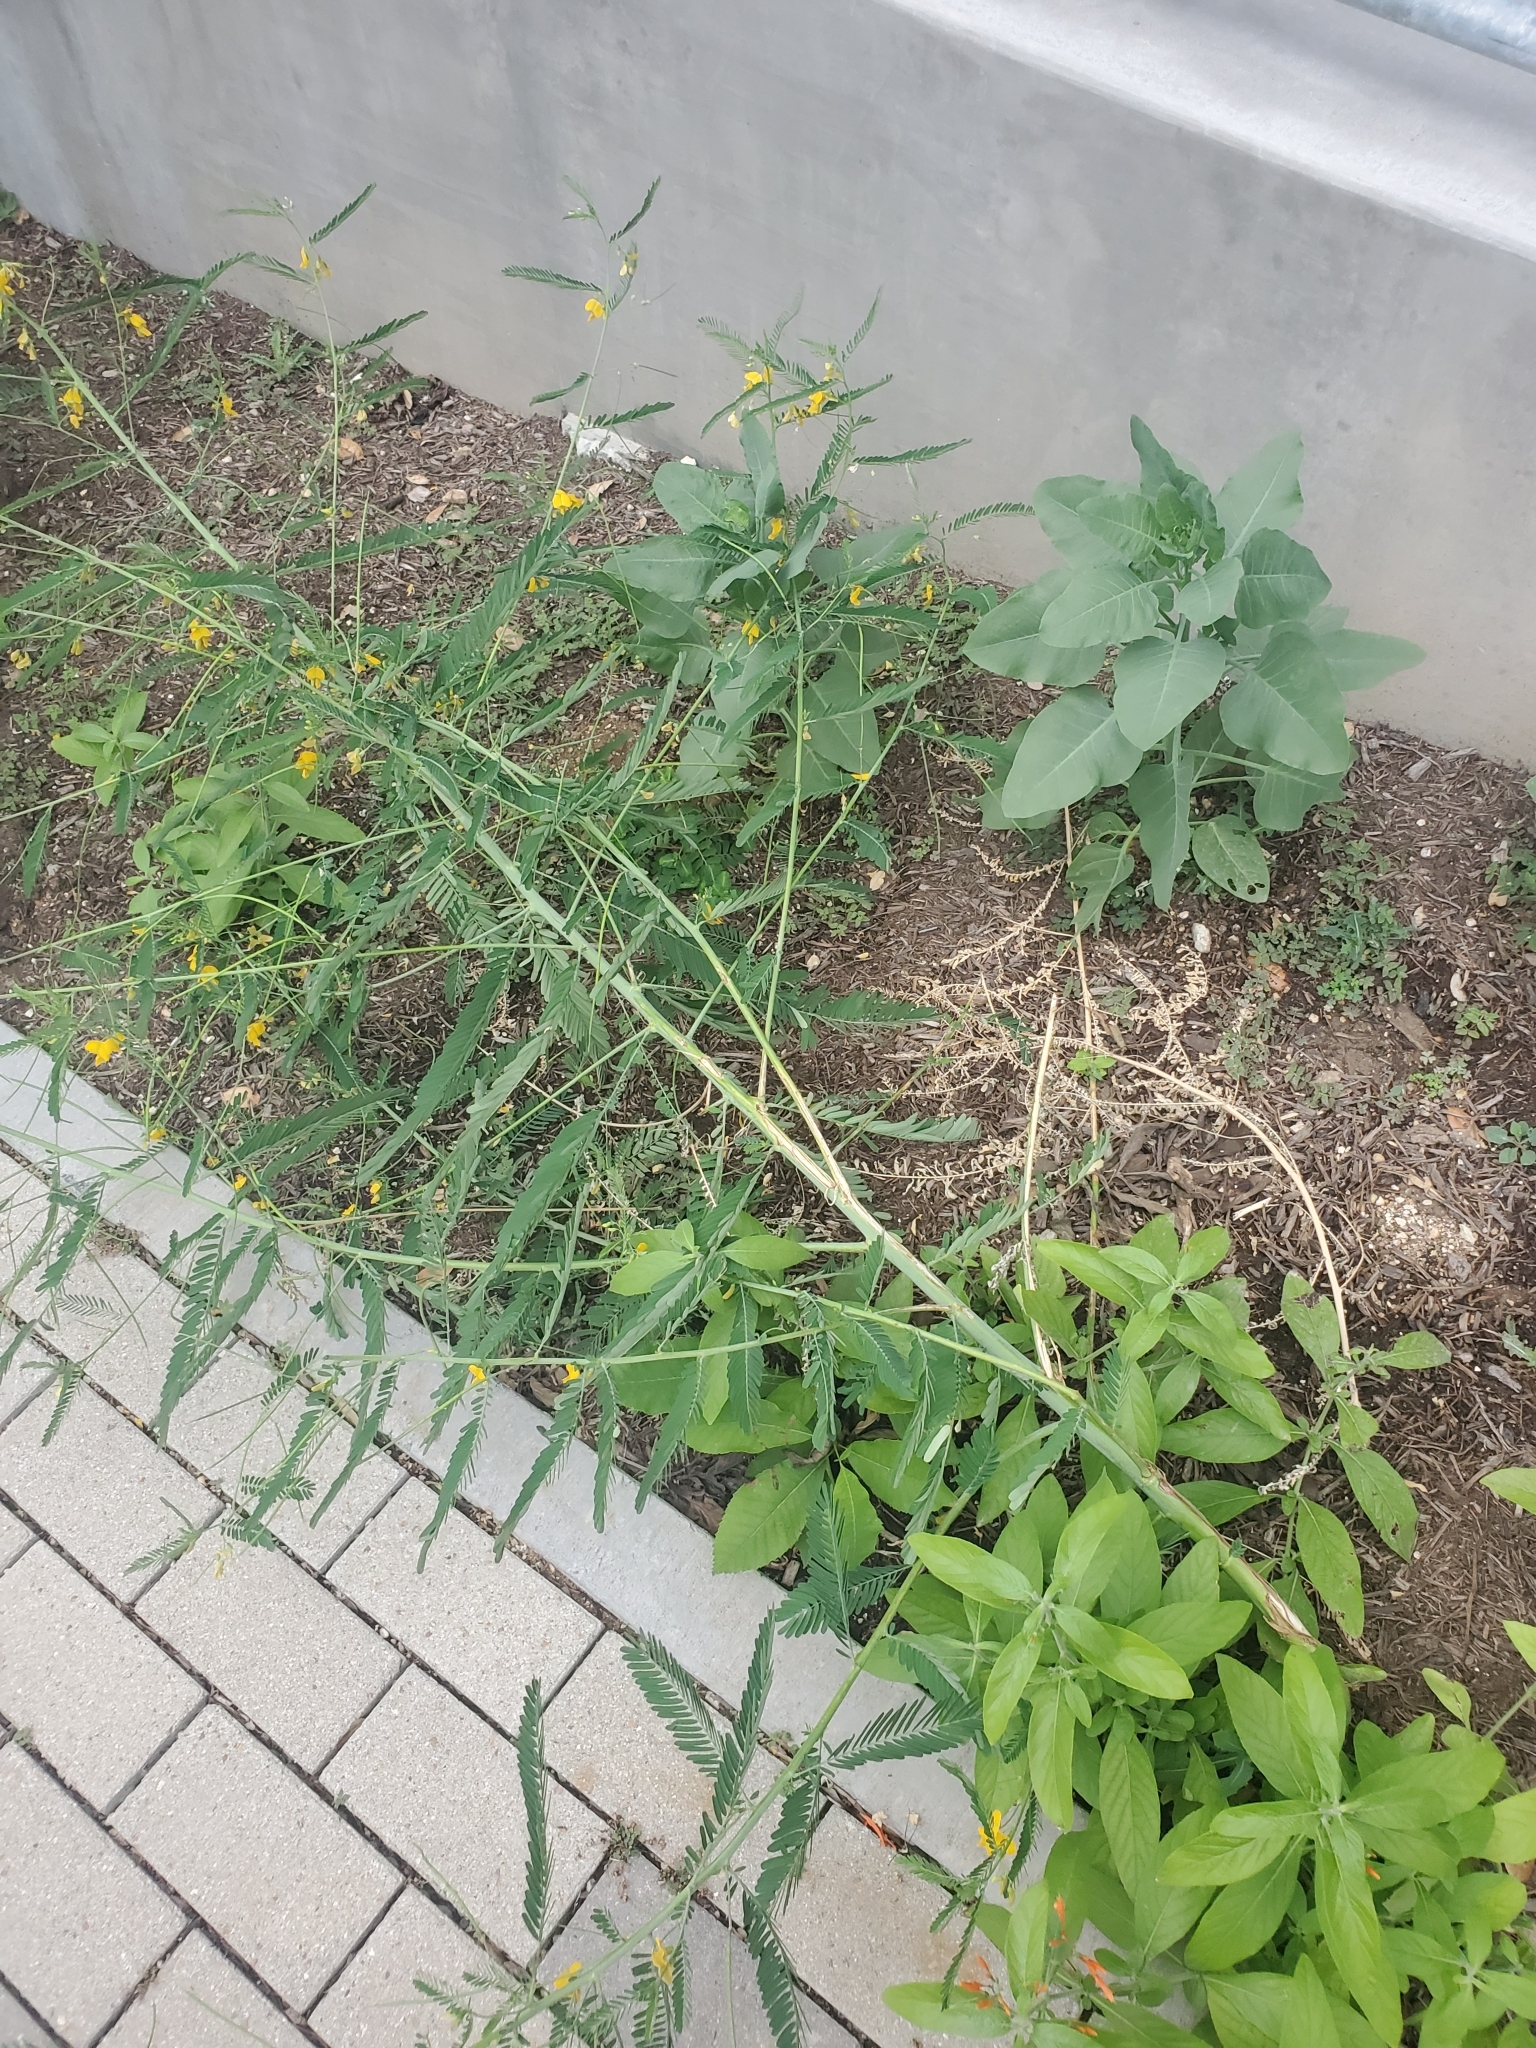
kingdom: Plantae
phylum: Tracheophyta
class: Magnoliopsida
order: Fabales
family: Fabaceae
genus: Sesbania
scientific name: Sesbania herbacea
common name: Bigpod sesbania
